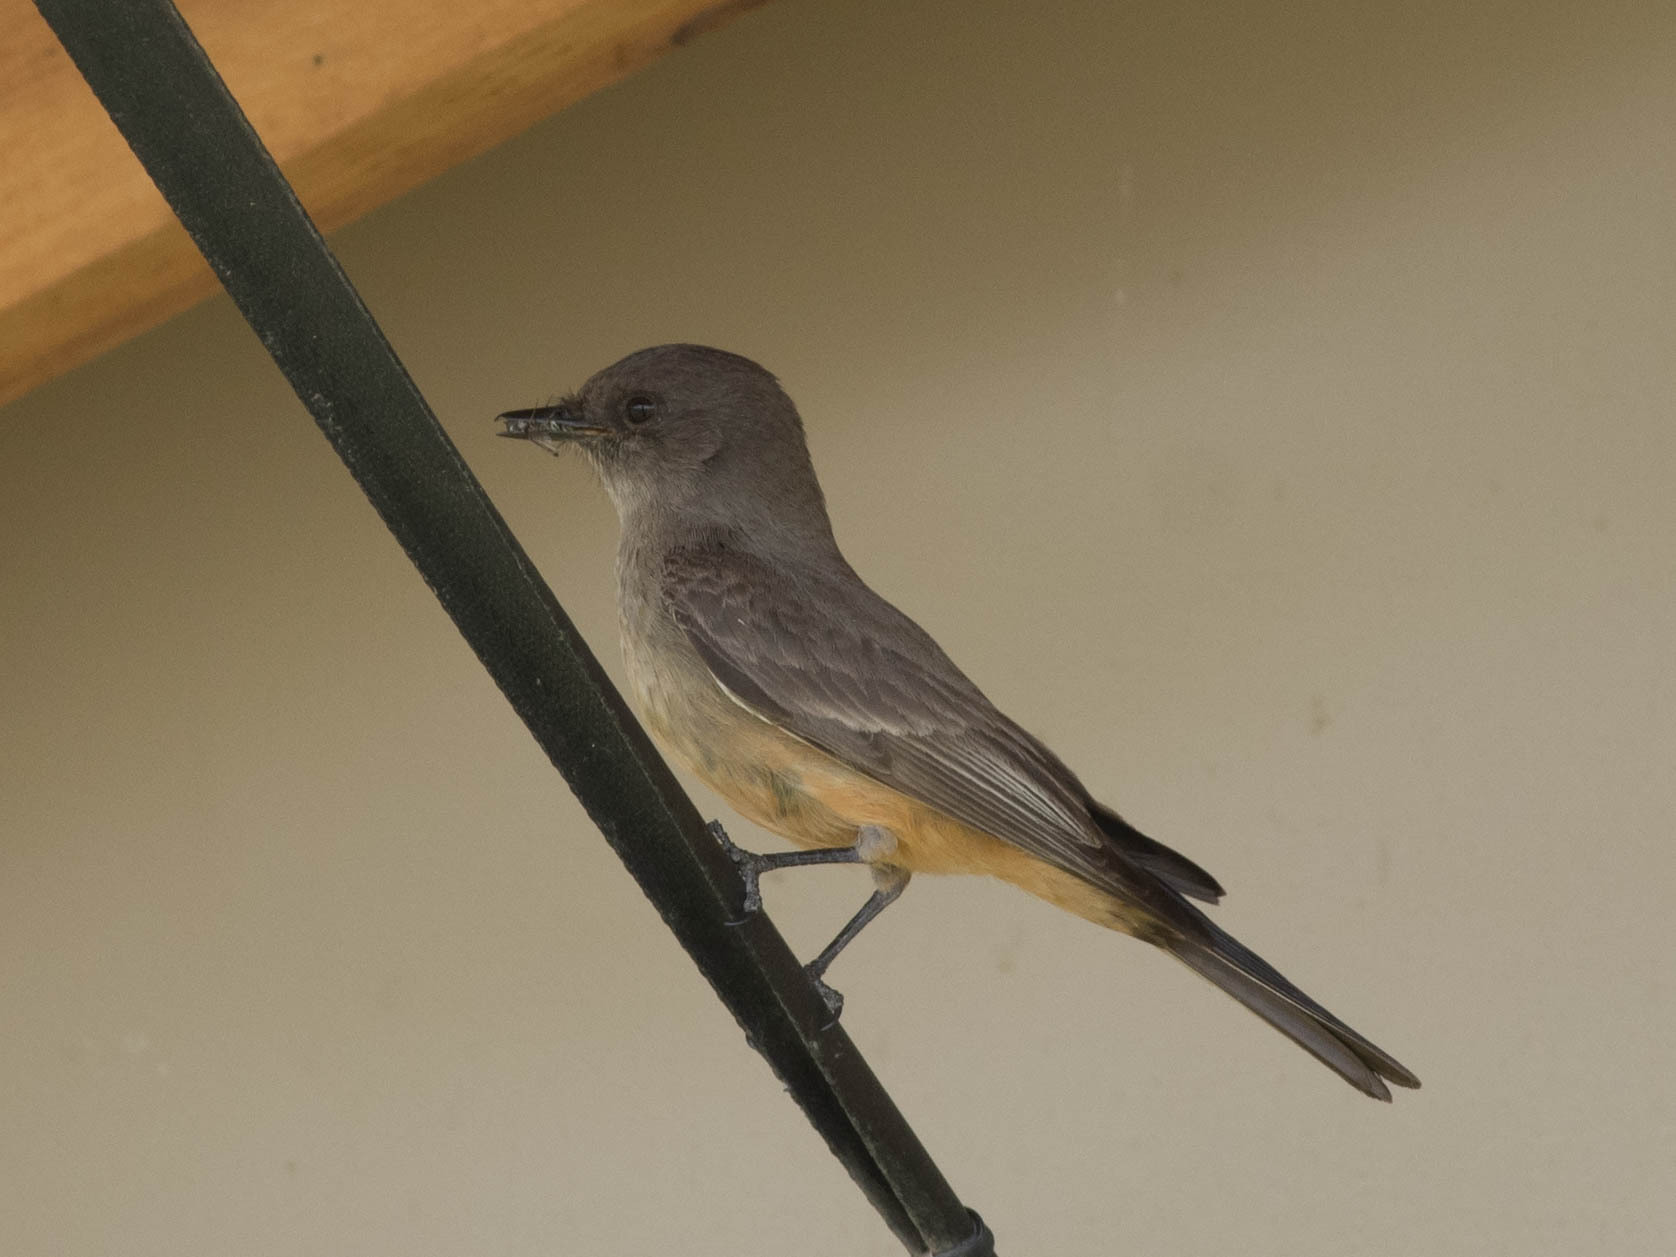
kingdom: Animalia
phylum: Chordata
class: Aves
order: Passeriformes
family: Tyrannidae
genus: Sayornis
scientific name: Sayornis saya
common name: Say's phoebe
